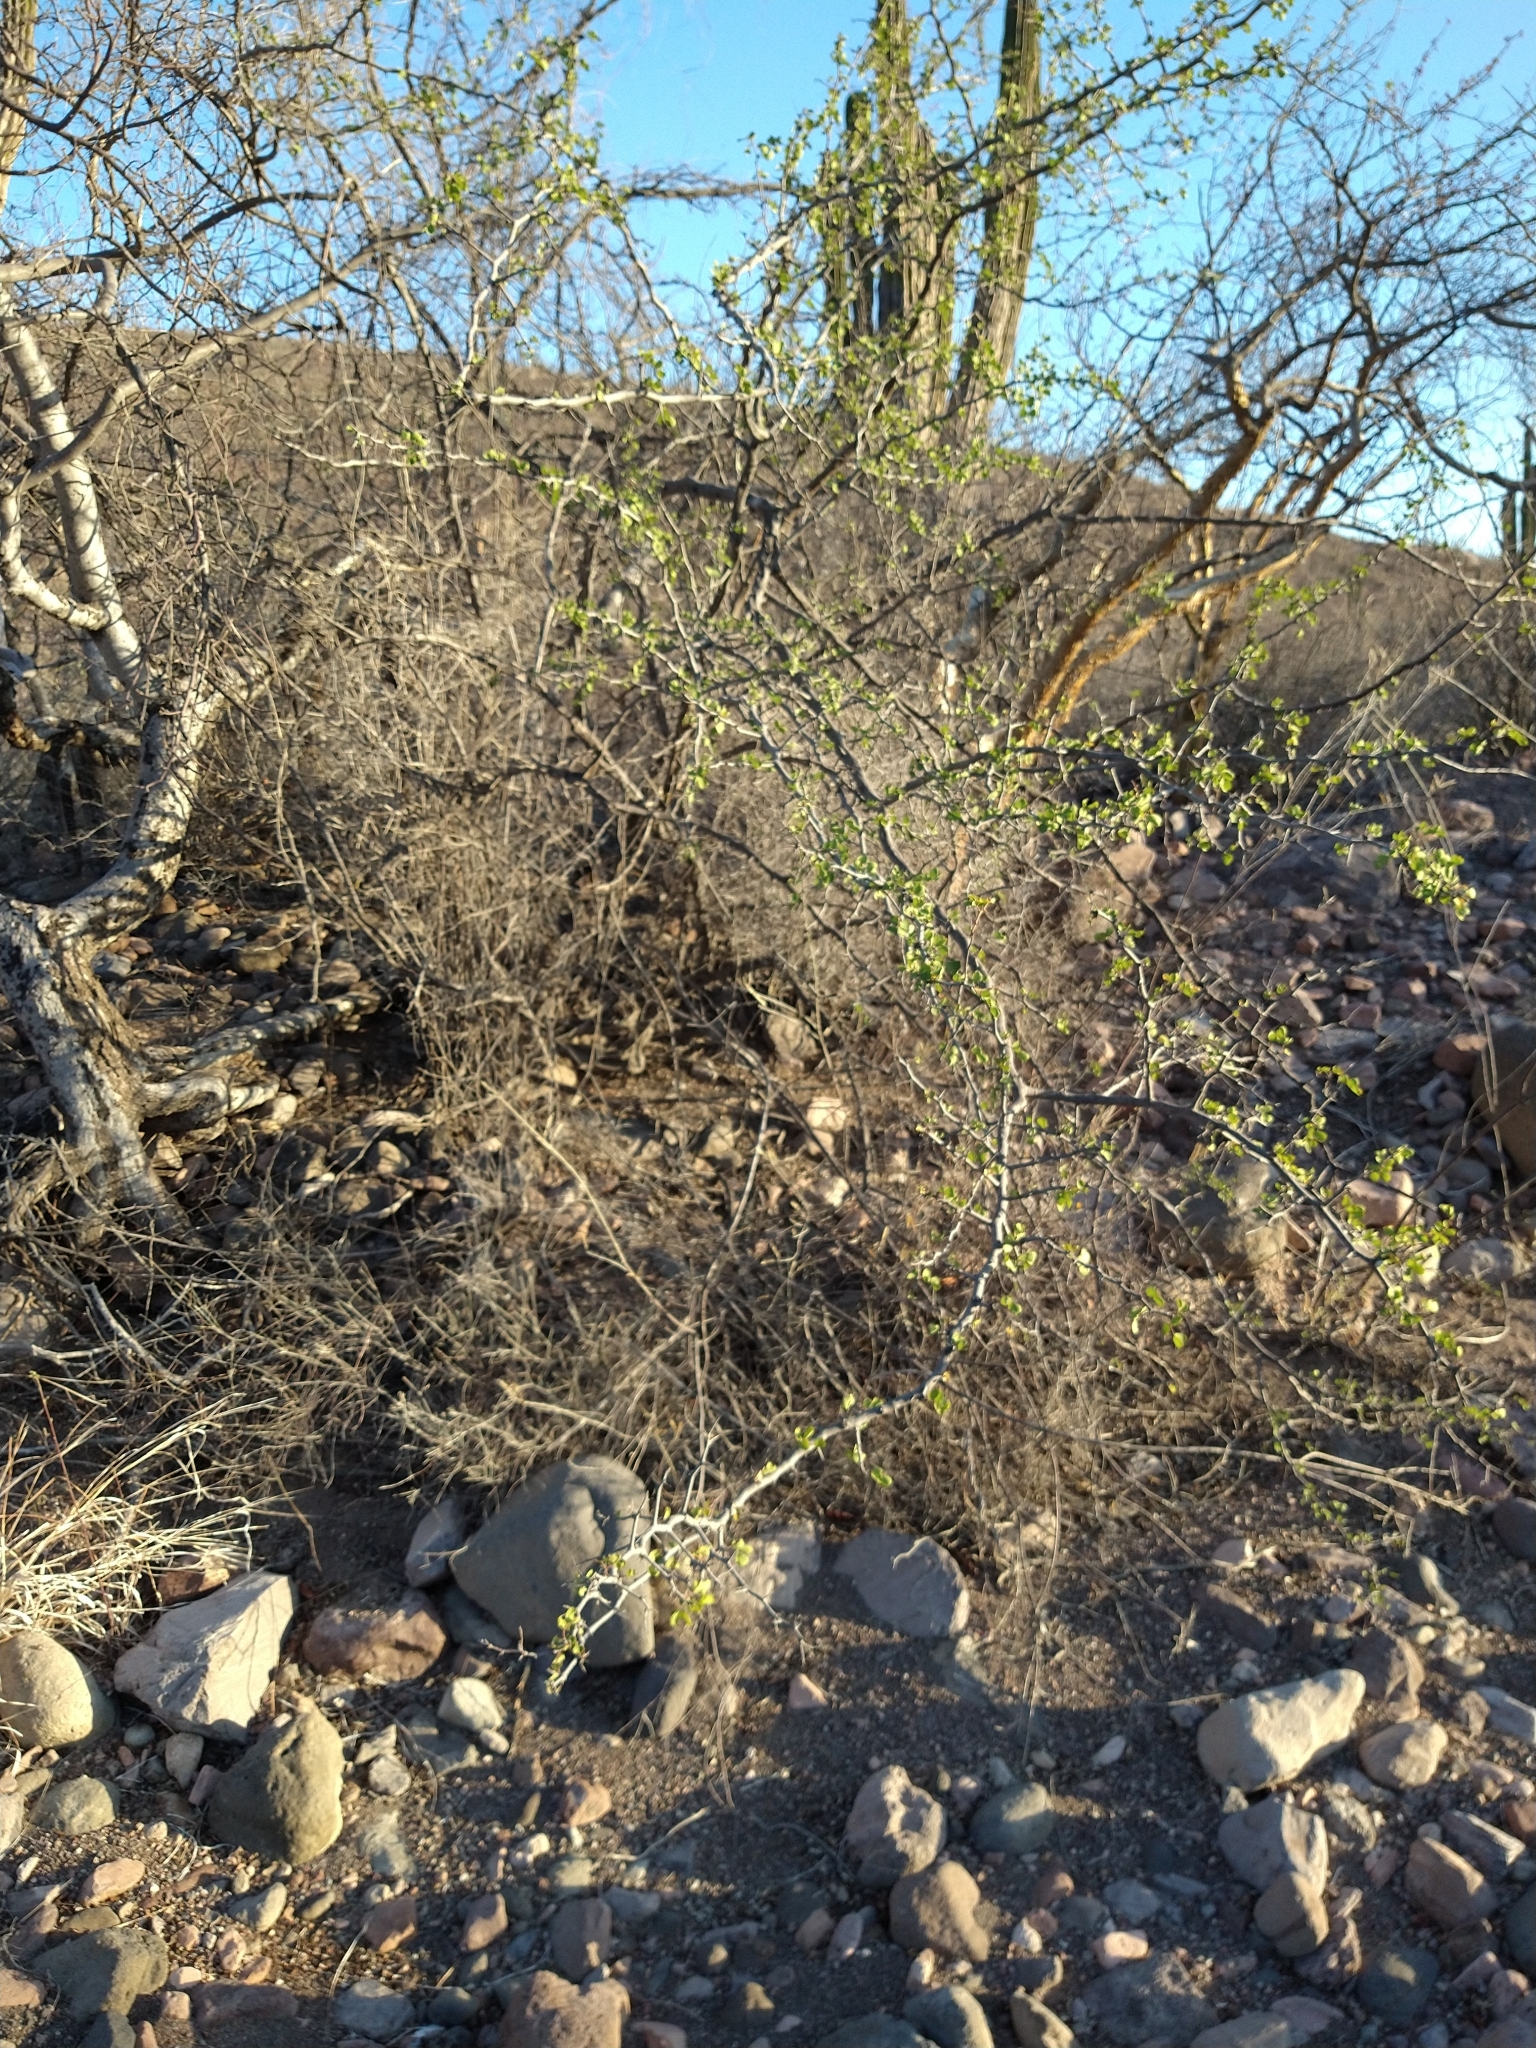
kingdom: Plantae
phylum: Tracheophyta
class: Magnoliopsida
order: Fabales
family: Fabaceae
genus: Haematoxylum
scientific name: Haematoxylum brasiletto
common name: Peachwood
